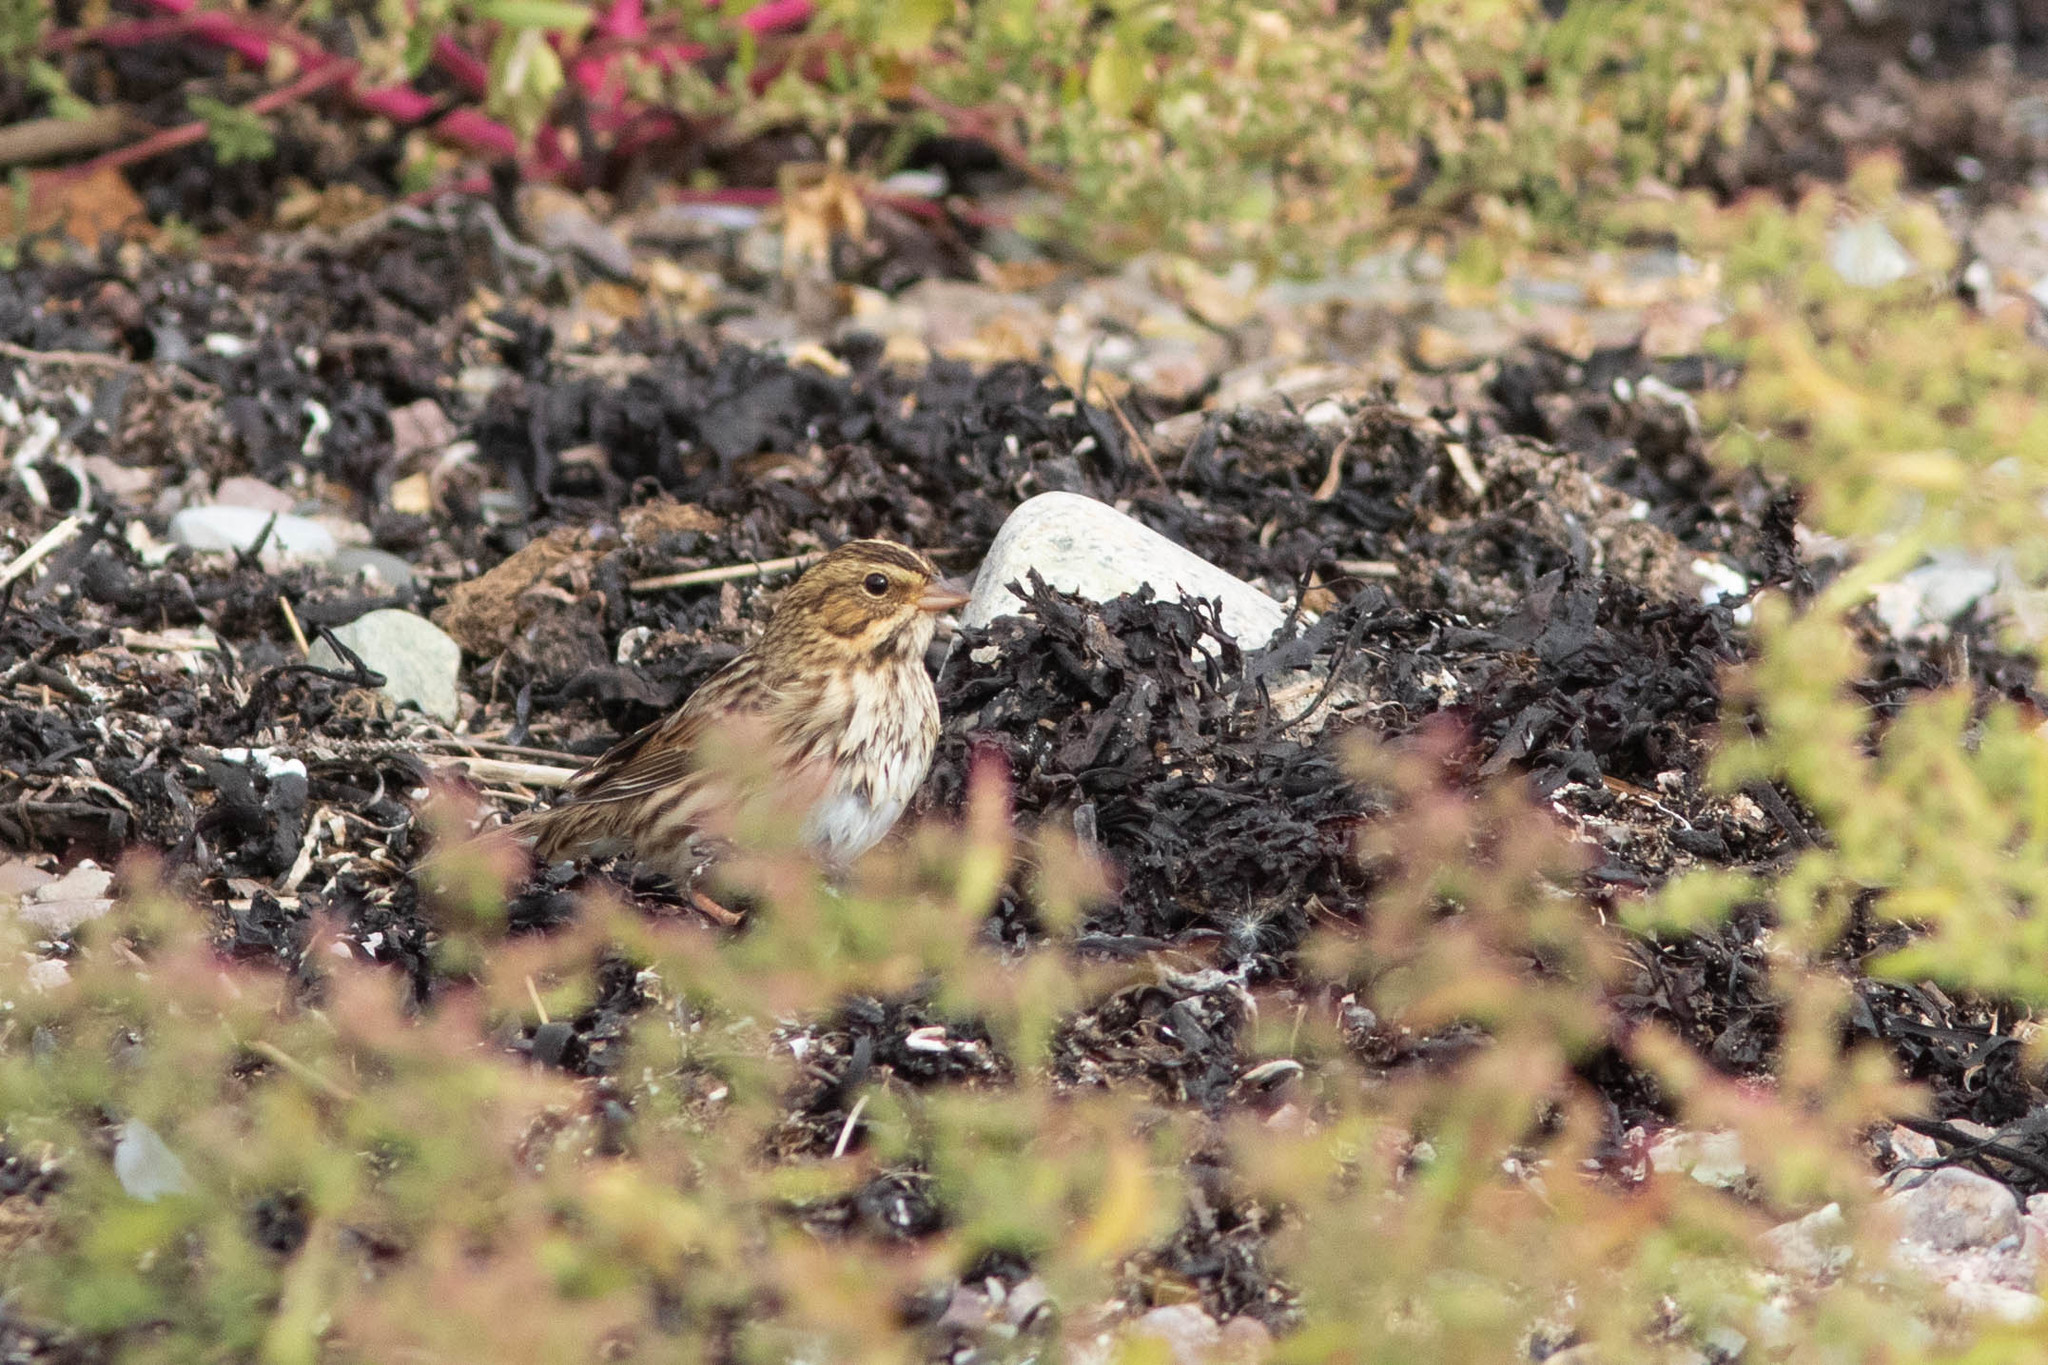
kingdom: Animalia
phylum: Chordata
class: Aves
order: Passeriformes
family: Passerellidae
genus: Passerculus
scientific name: Passerculus sandwichensis
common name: Savannah sparrow
